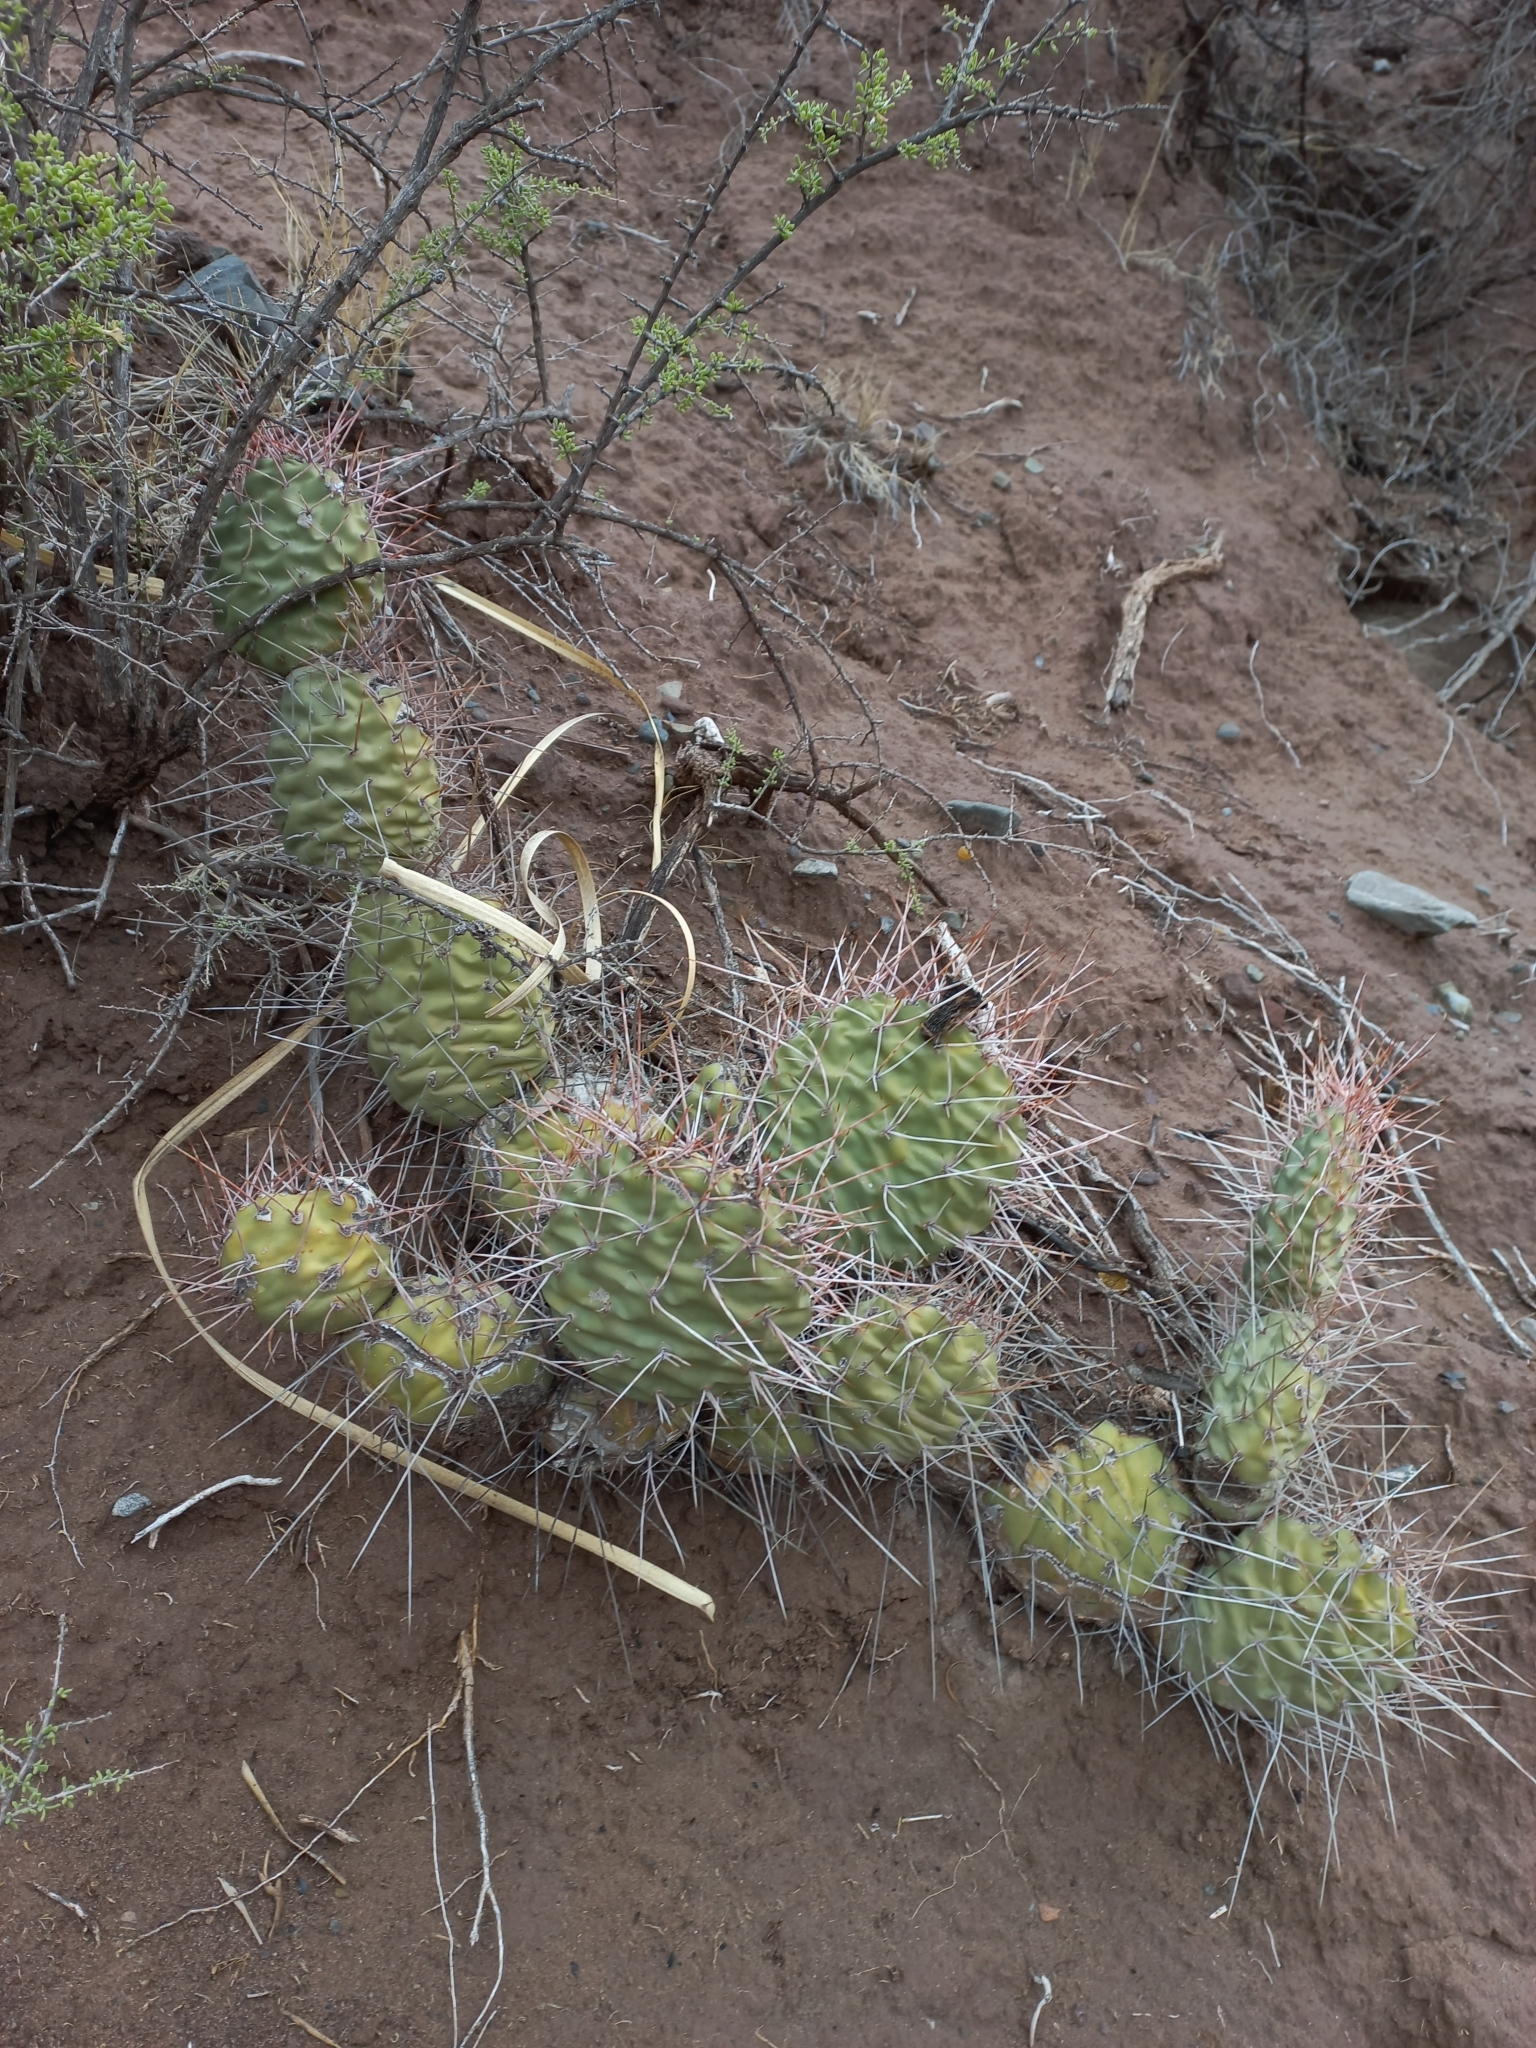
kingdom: Plantae
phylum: Tracheophyta
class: Magnoliopsida
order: Caryophyllales
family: Cactaceae
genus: Opuntia
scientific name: Opuntia sulphurea
